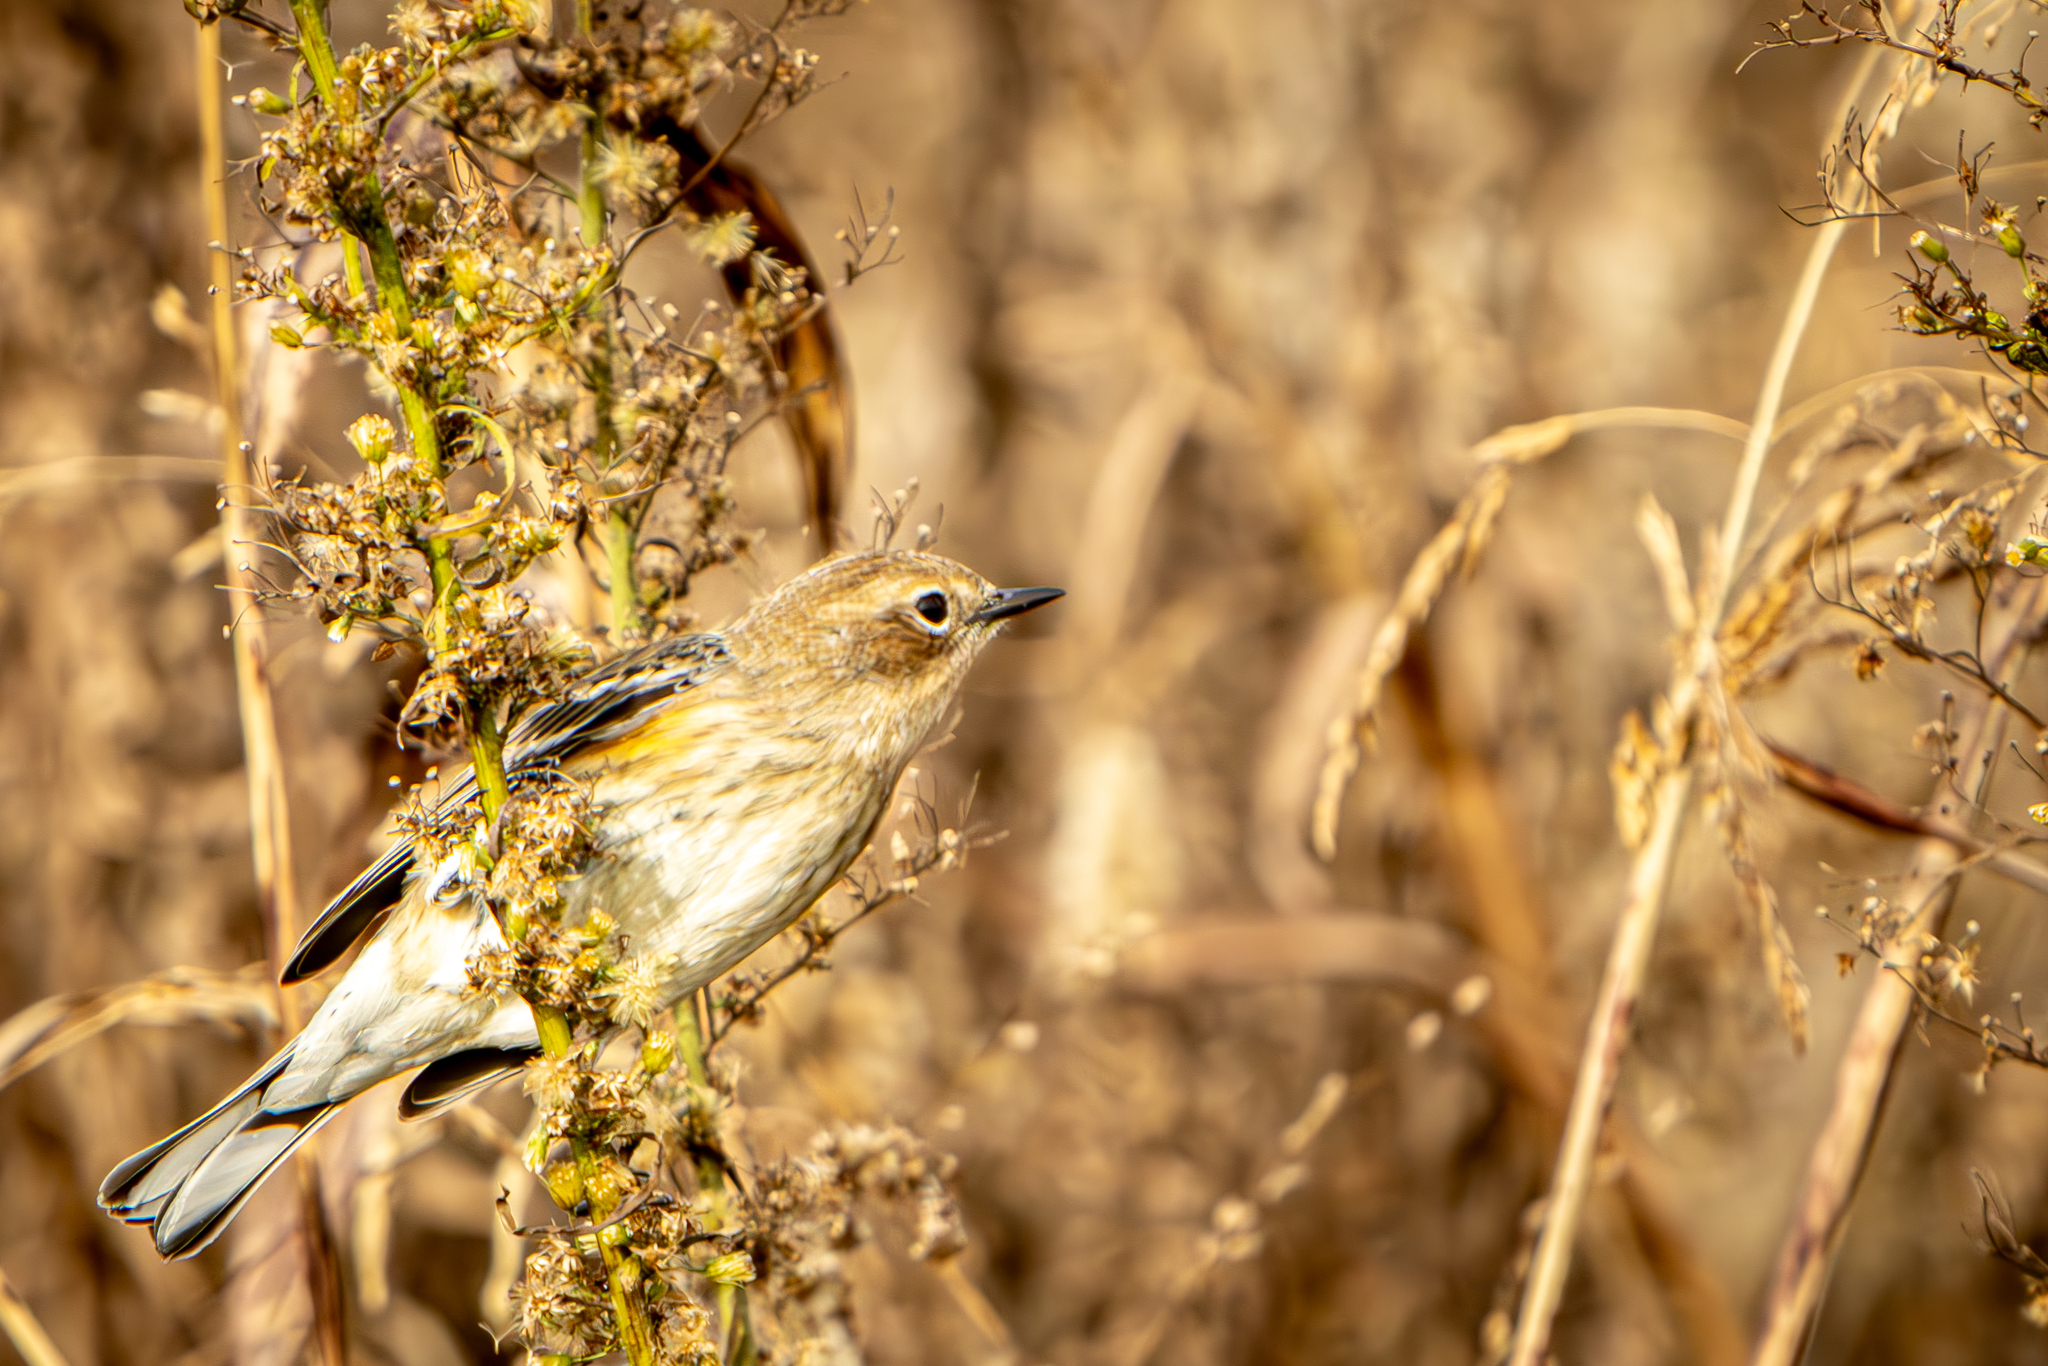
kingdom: Animalia
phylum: Chordata
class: Aves
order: Passeriformes
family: Parulidae
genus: Setophaga
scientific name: Setophaga coronata
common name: Myrtle warbler
